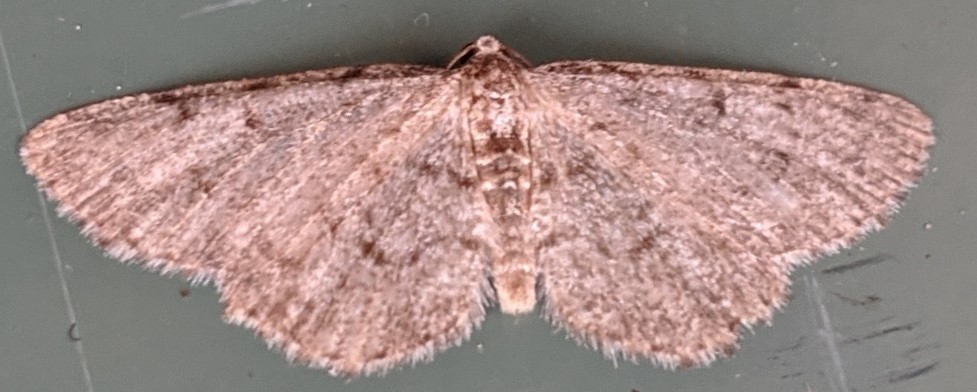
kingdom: Animalia
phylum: Arthropoda
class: Insecta
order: Lepidoptera
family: Geometridae
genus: Aethalura
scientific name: Aethalura intertexta
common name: Four-barred gray
